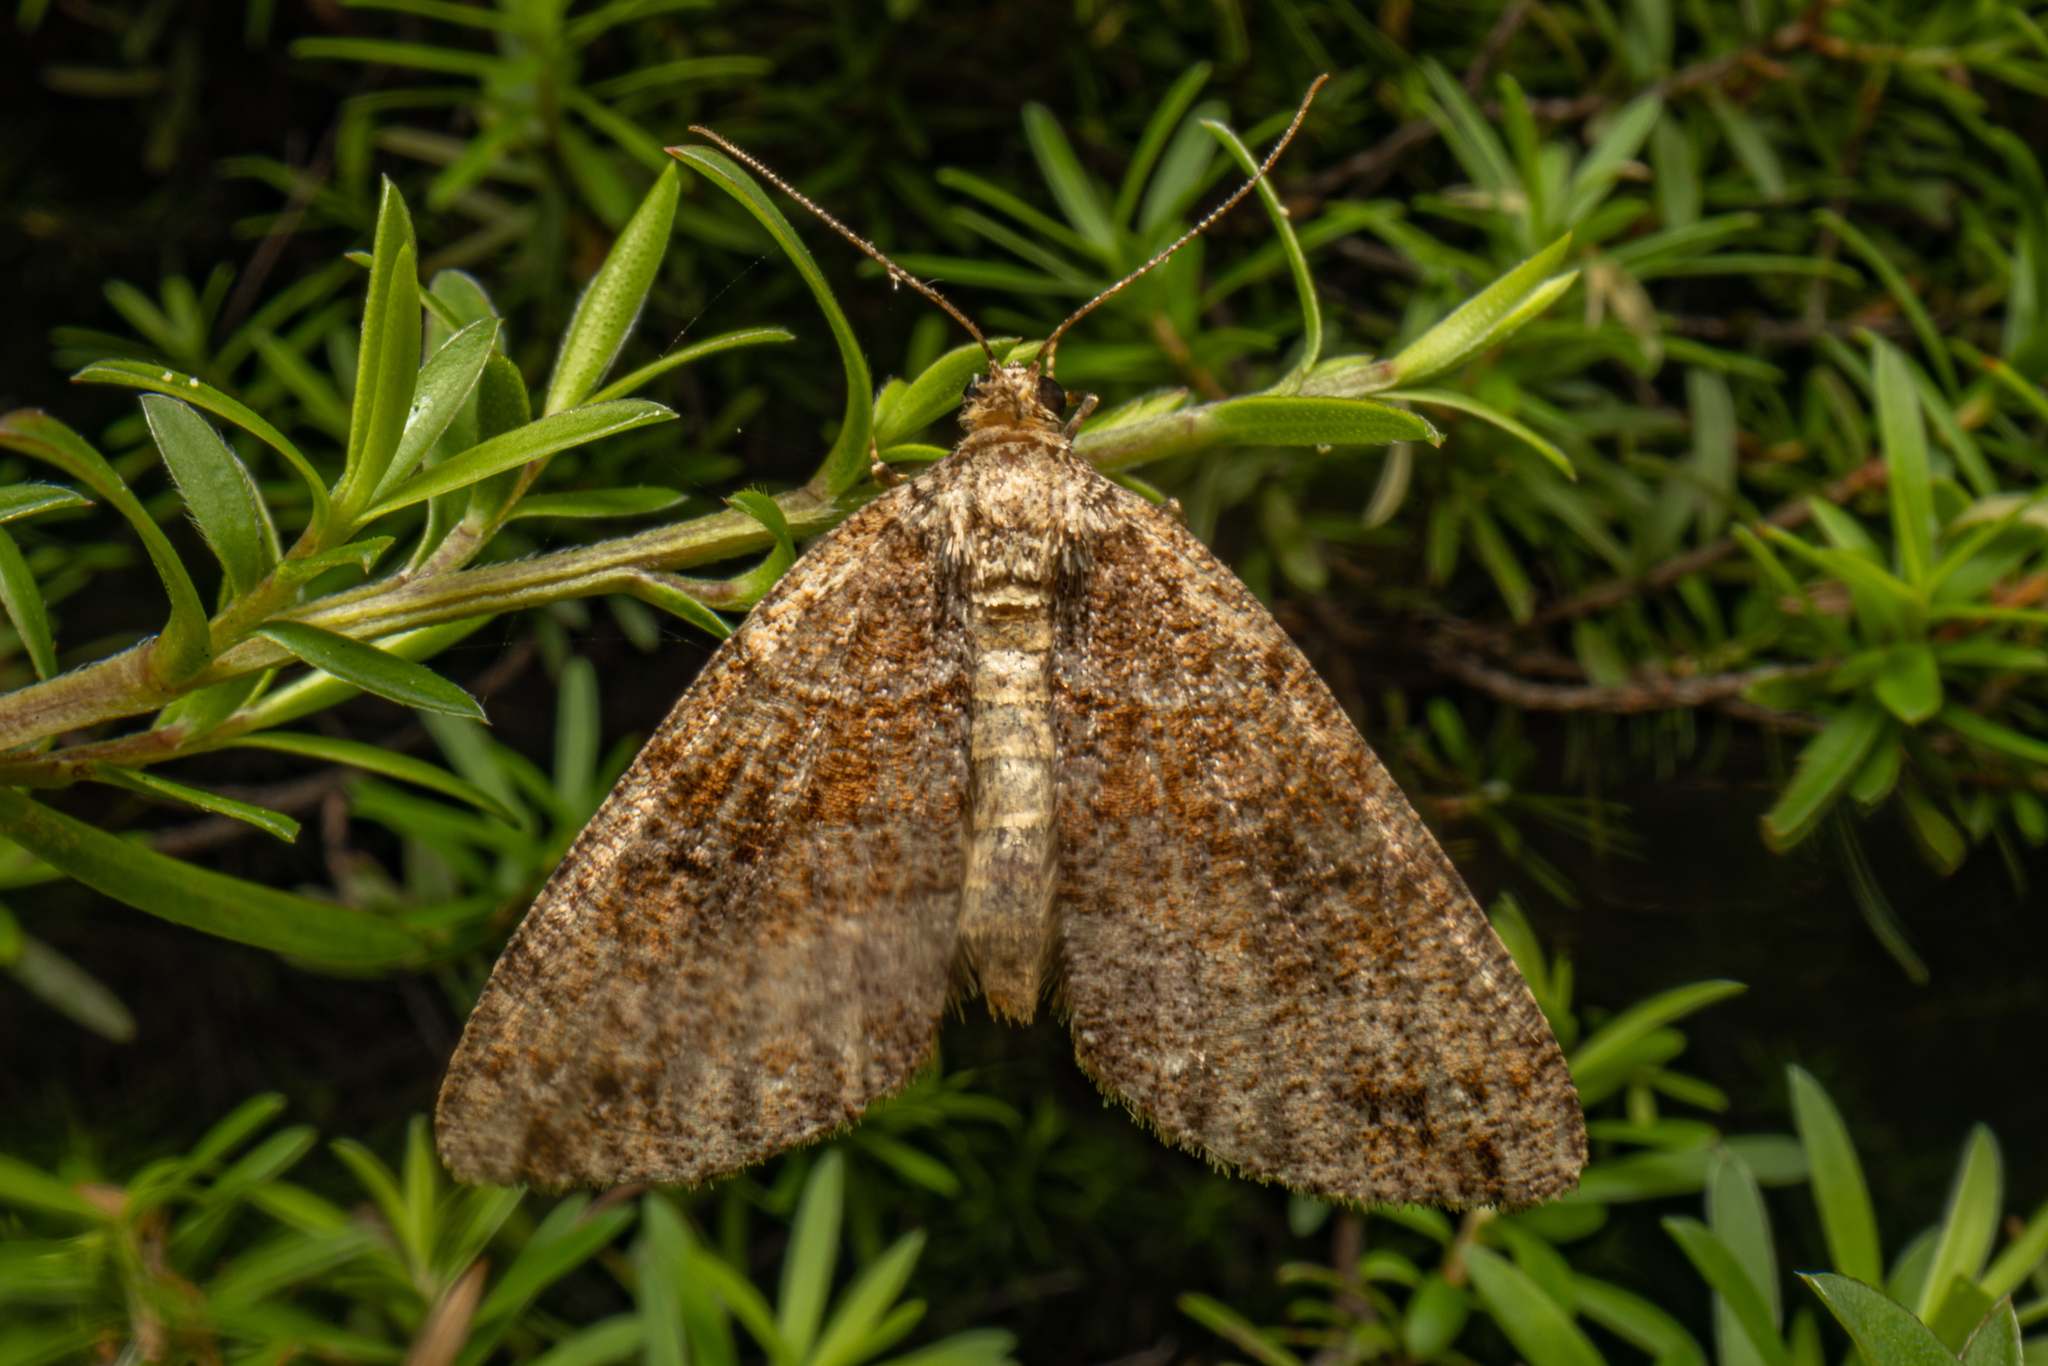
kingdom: Animalia
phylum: Arthropoda
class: Insecta
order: Lepidoptera
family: Geometridae
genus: Pseudocoremia
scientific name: Pseudocoremia productata
